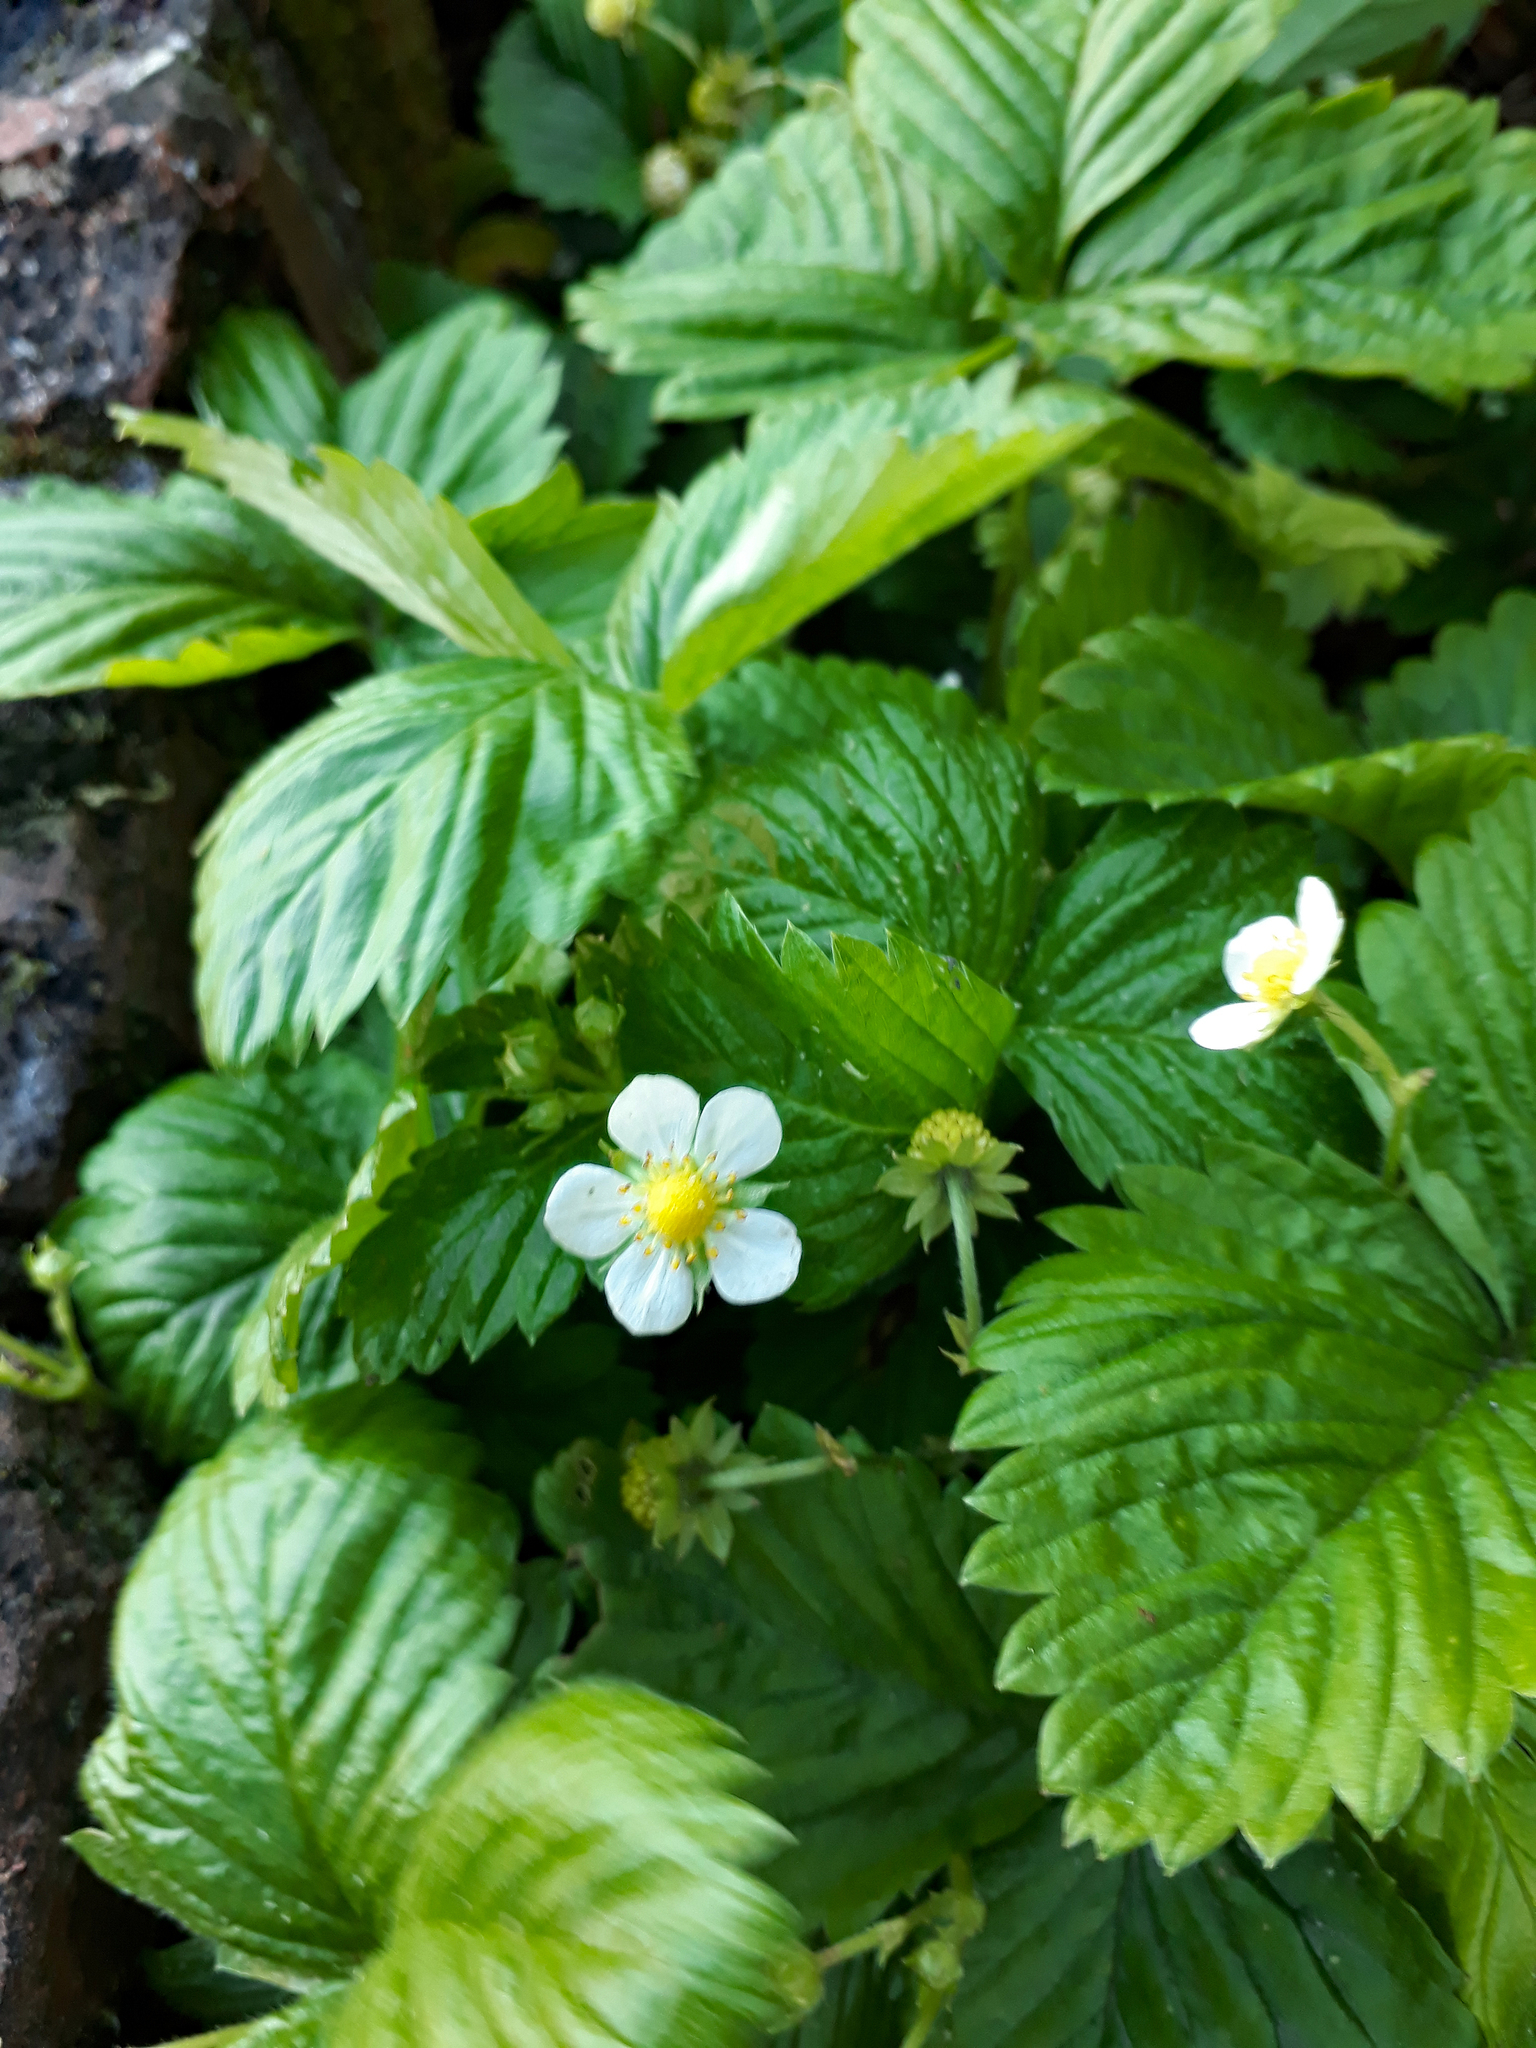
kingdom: Plantae
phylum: Tracheophyta
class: Magnoliopsida
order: Rosales
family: Rosaceae
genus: Fragaria
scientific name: Fragaria vesca
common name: Wild strawberry
